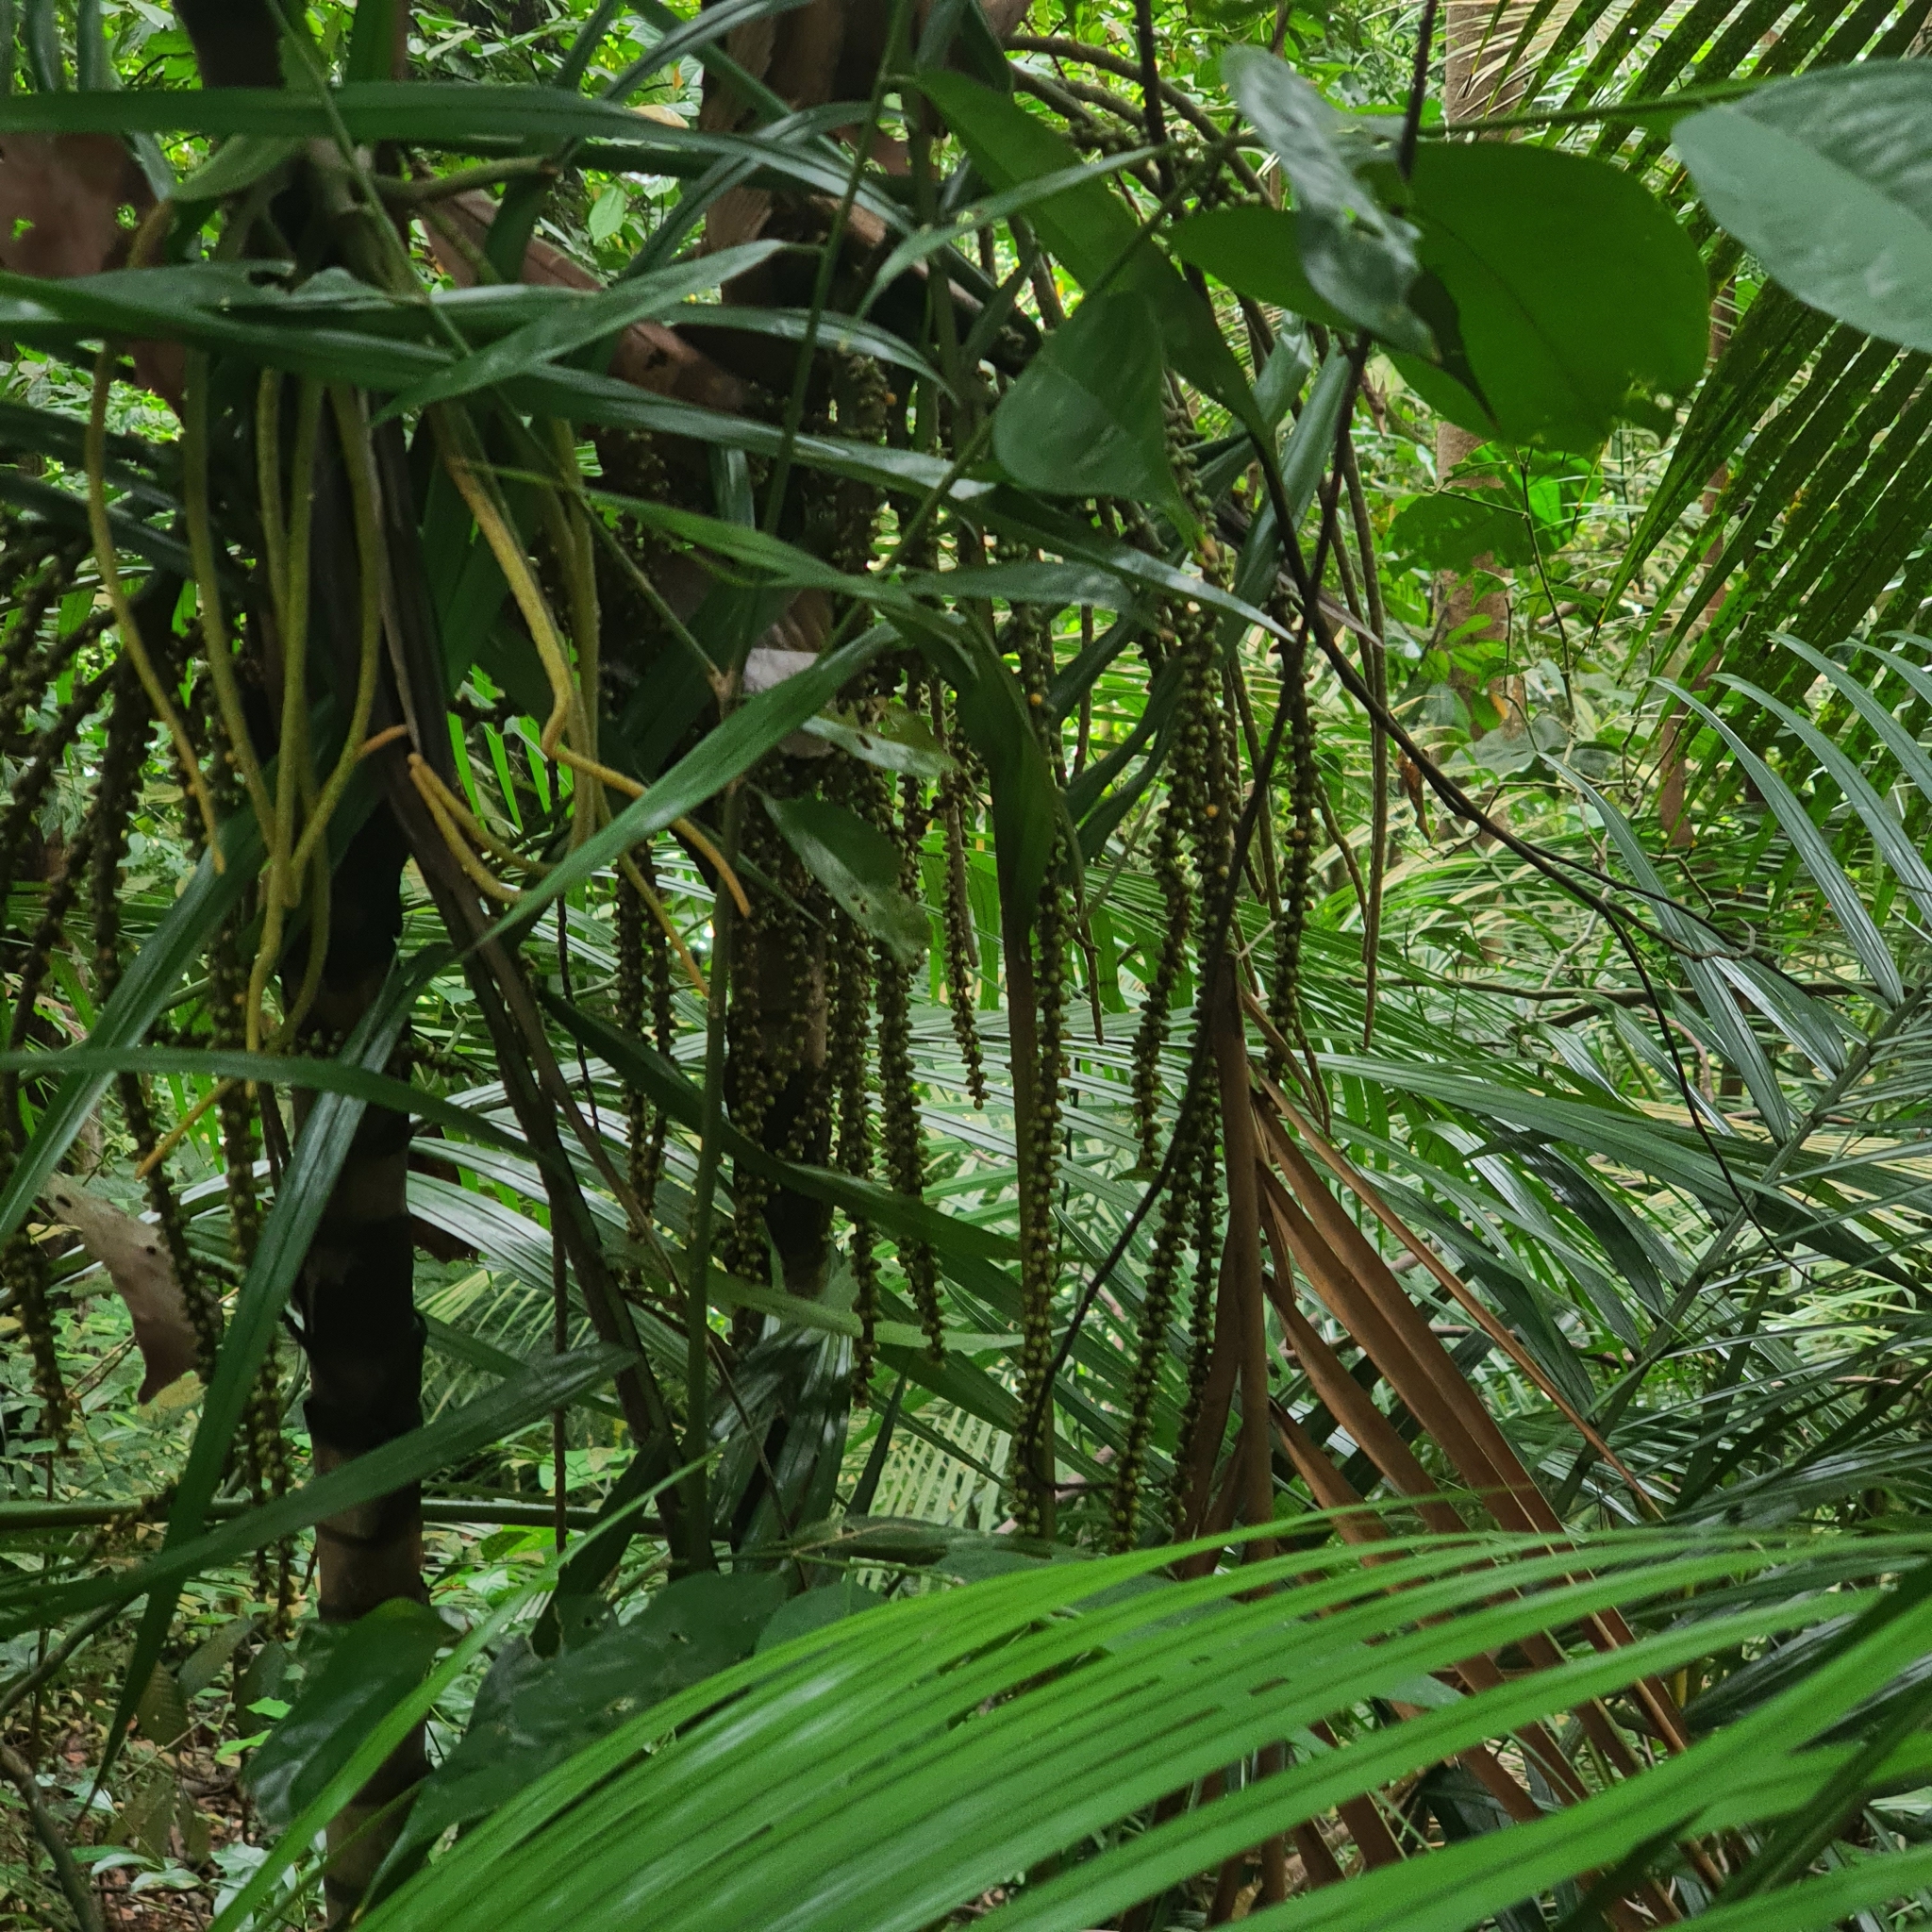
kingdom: Plantae
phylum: Tracheophyta
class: Liliopsida
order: Arecales
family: Arecaceae
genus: Rhopaloblaste
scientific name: Rhopaloblaste singaporensis
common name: Kerinting palm
